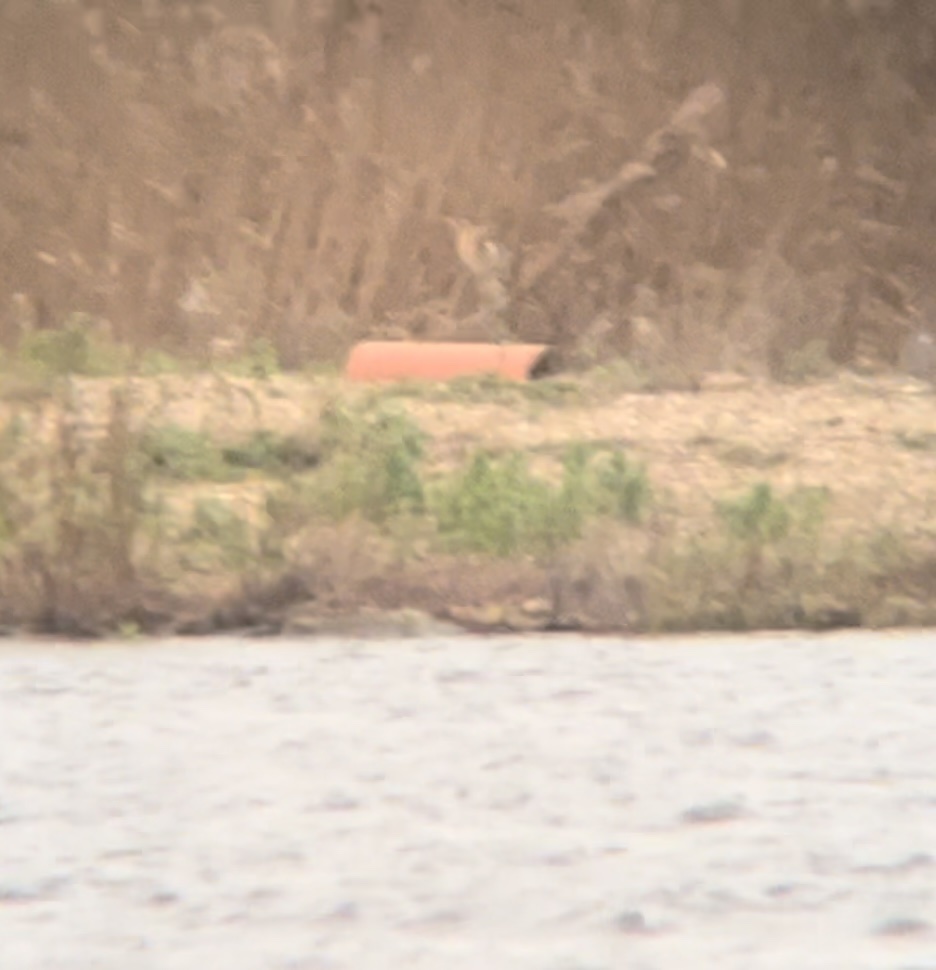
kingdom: Animalia
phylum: Chordata
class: Aves
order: Pelecaniformes
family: Ardeidae
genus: Botaurus
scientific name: Botaurus stellaris
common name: Eurasian bittern
